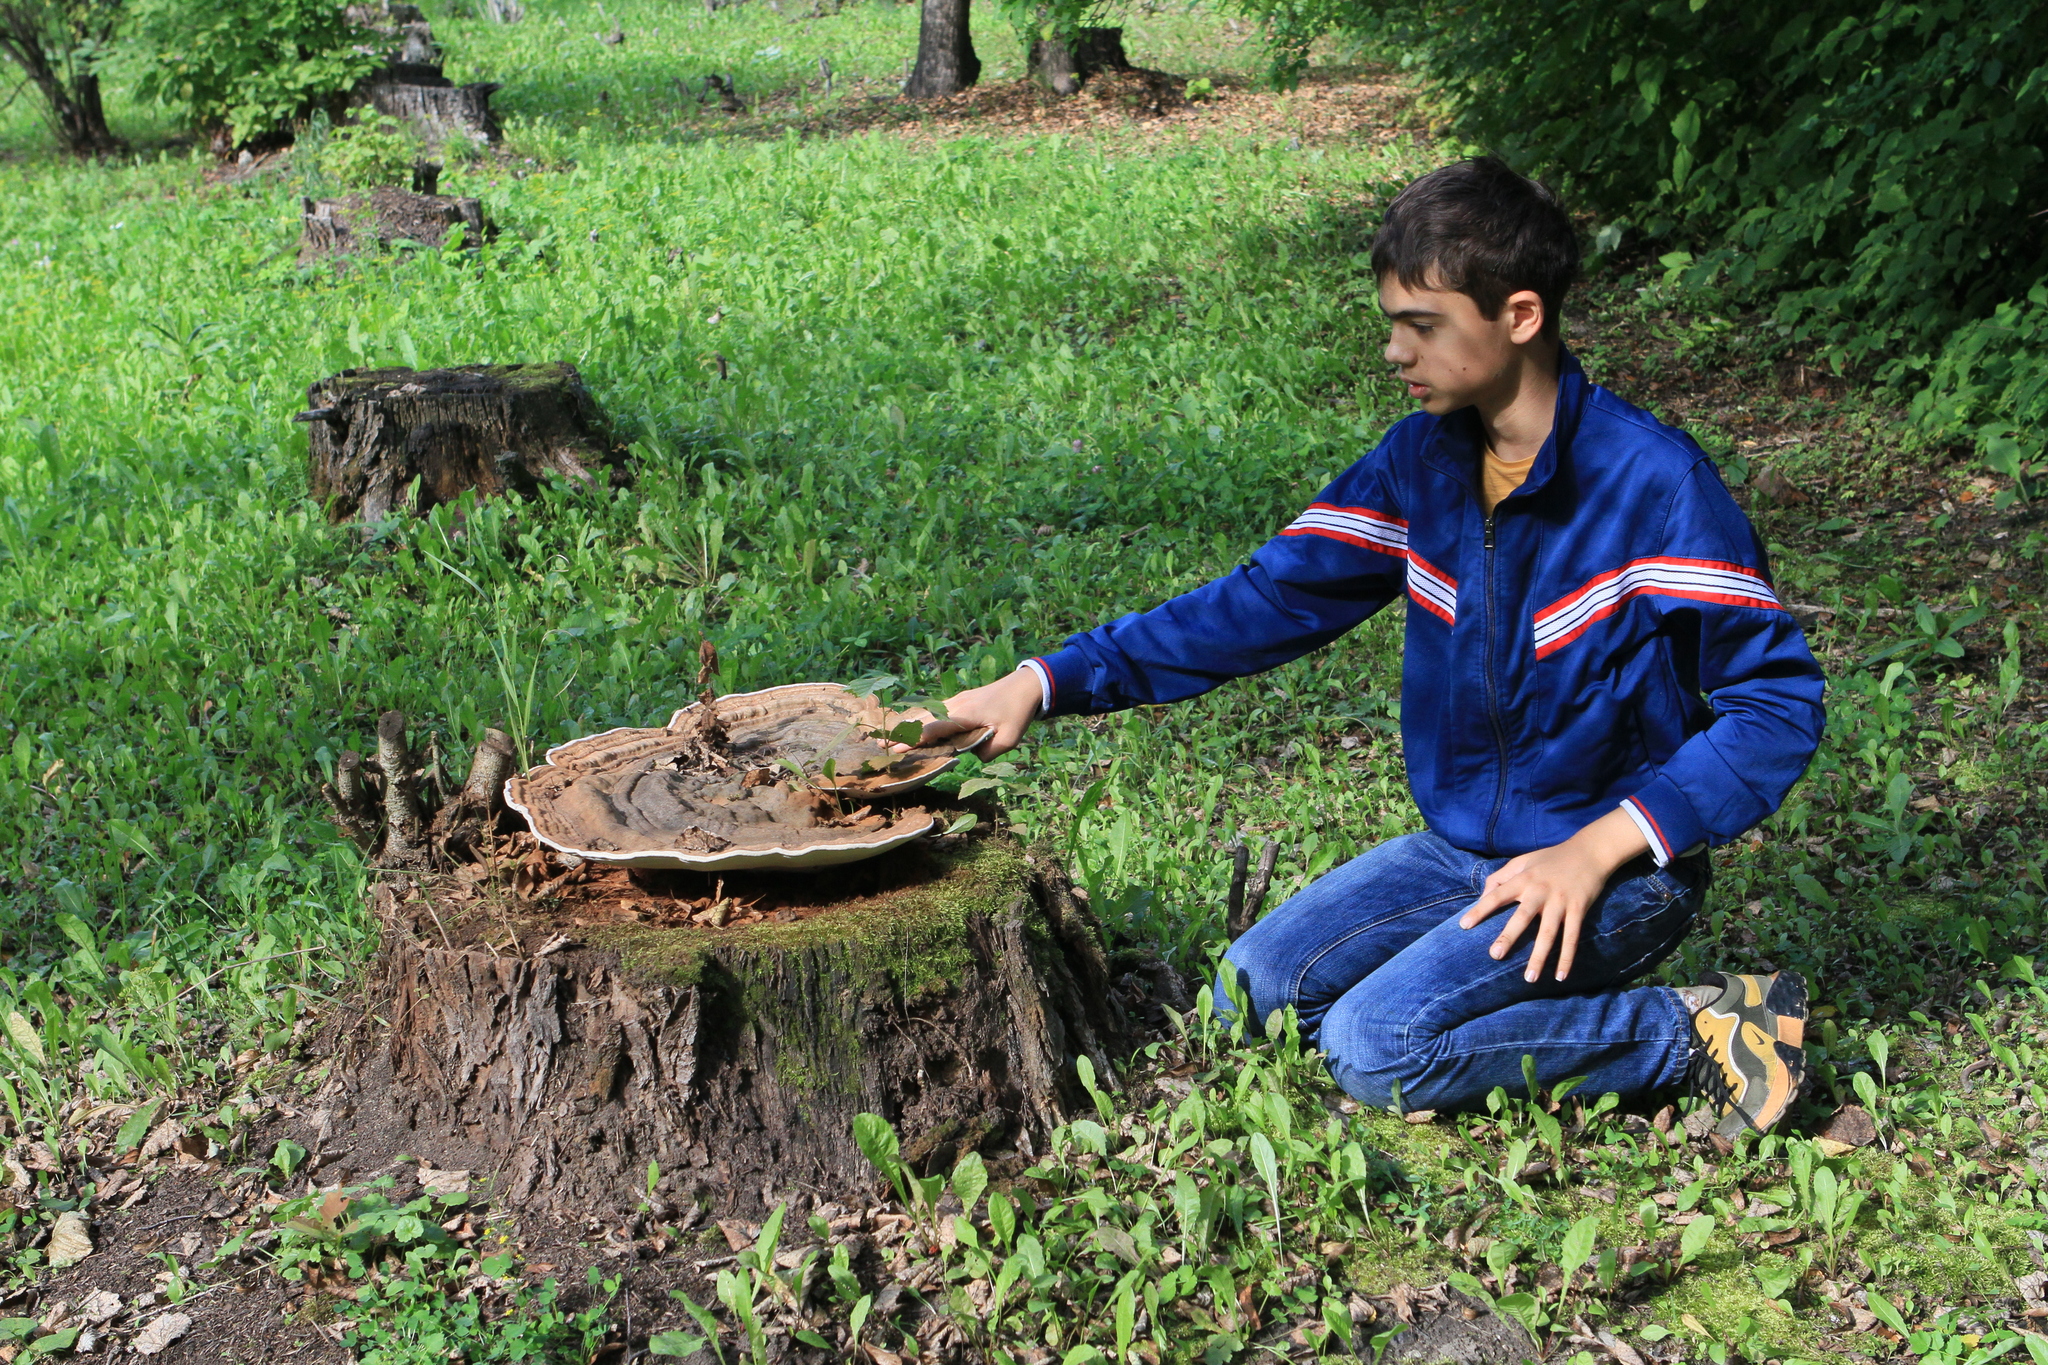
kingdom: Fungi
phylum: Basidiomycota
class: Agaricomycetes
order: Polyporales
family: Polyporaceae
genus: Ganoderma
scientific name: Ganoderma applanatum
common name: Artist's bracket
